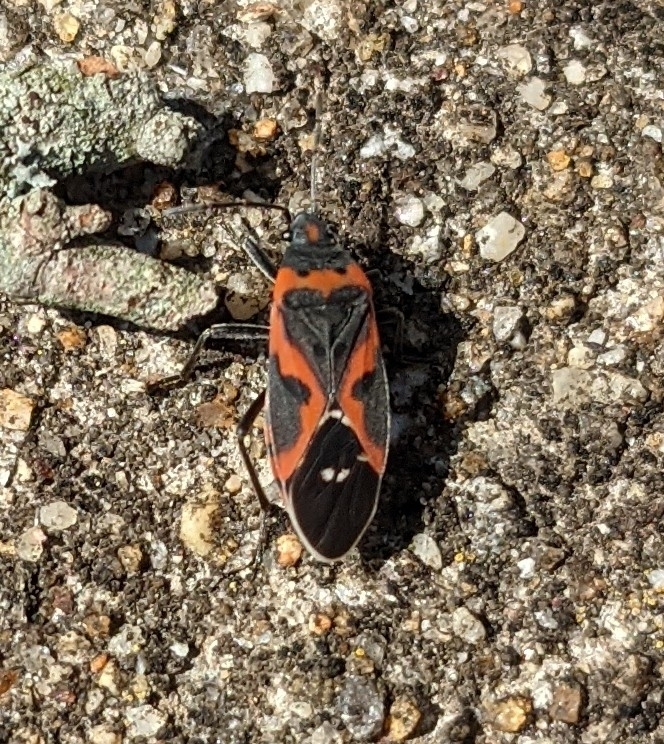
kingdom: Animalia
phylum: Arthropoda
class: Insecta
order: Hemiptera
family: Lygaeidae
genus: Lygaeus
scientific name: Lygaeus kalmii
